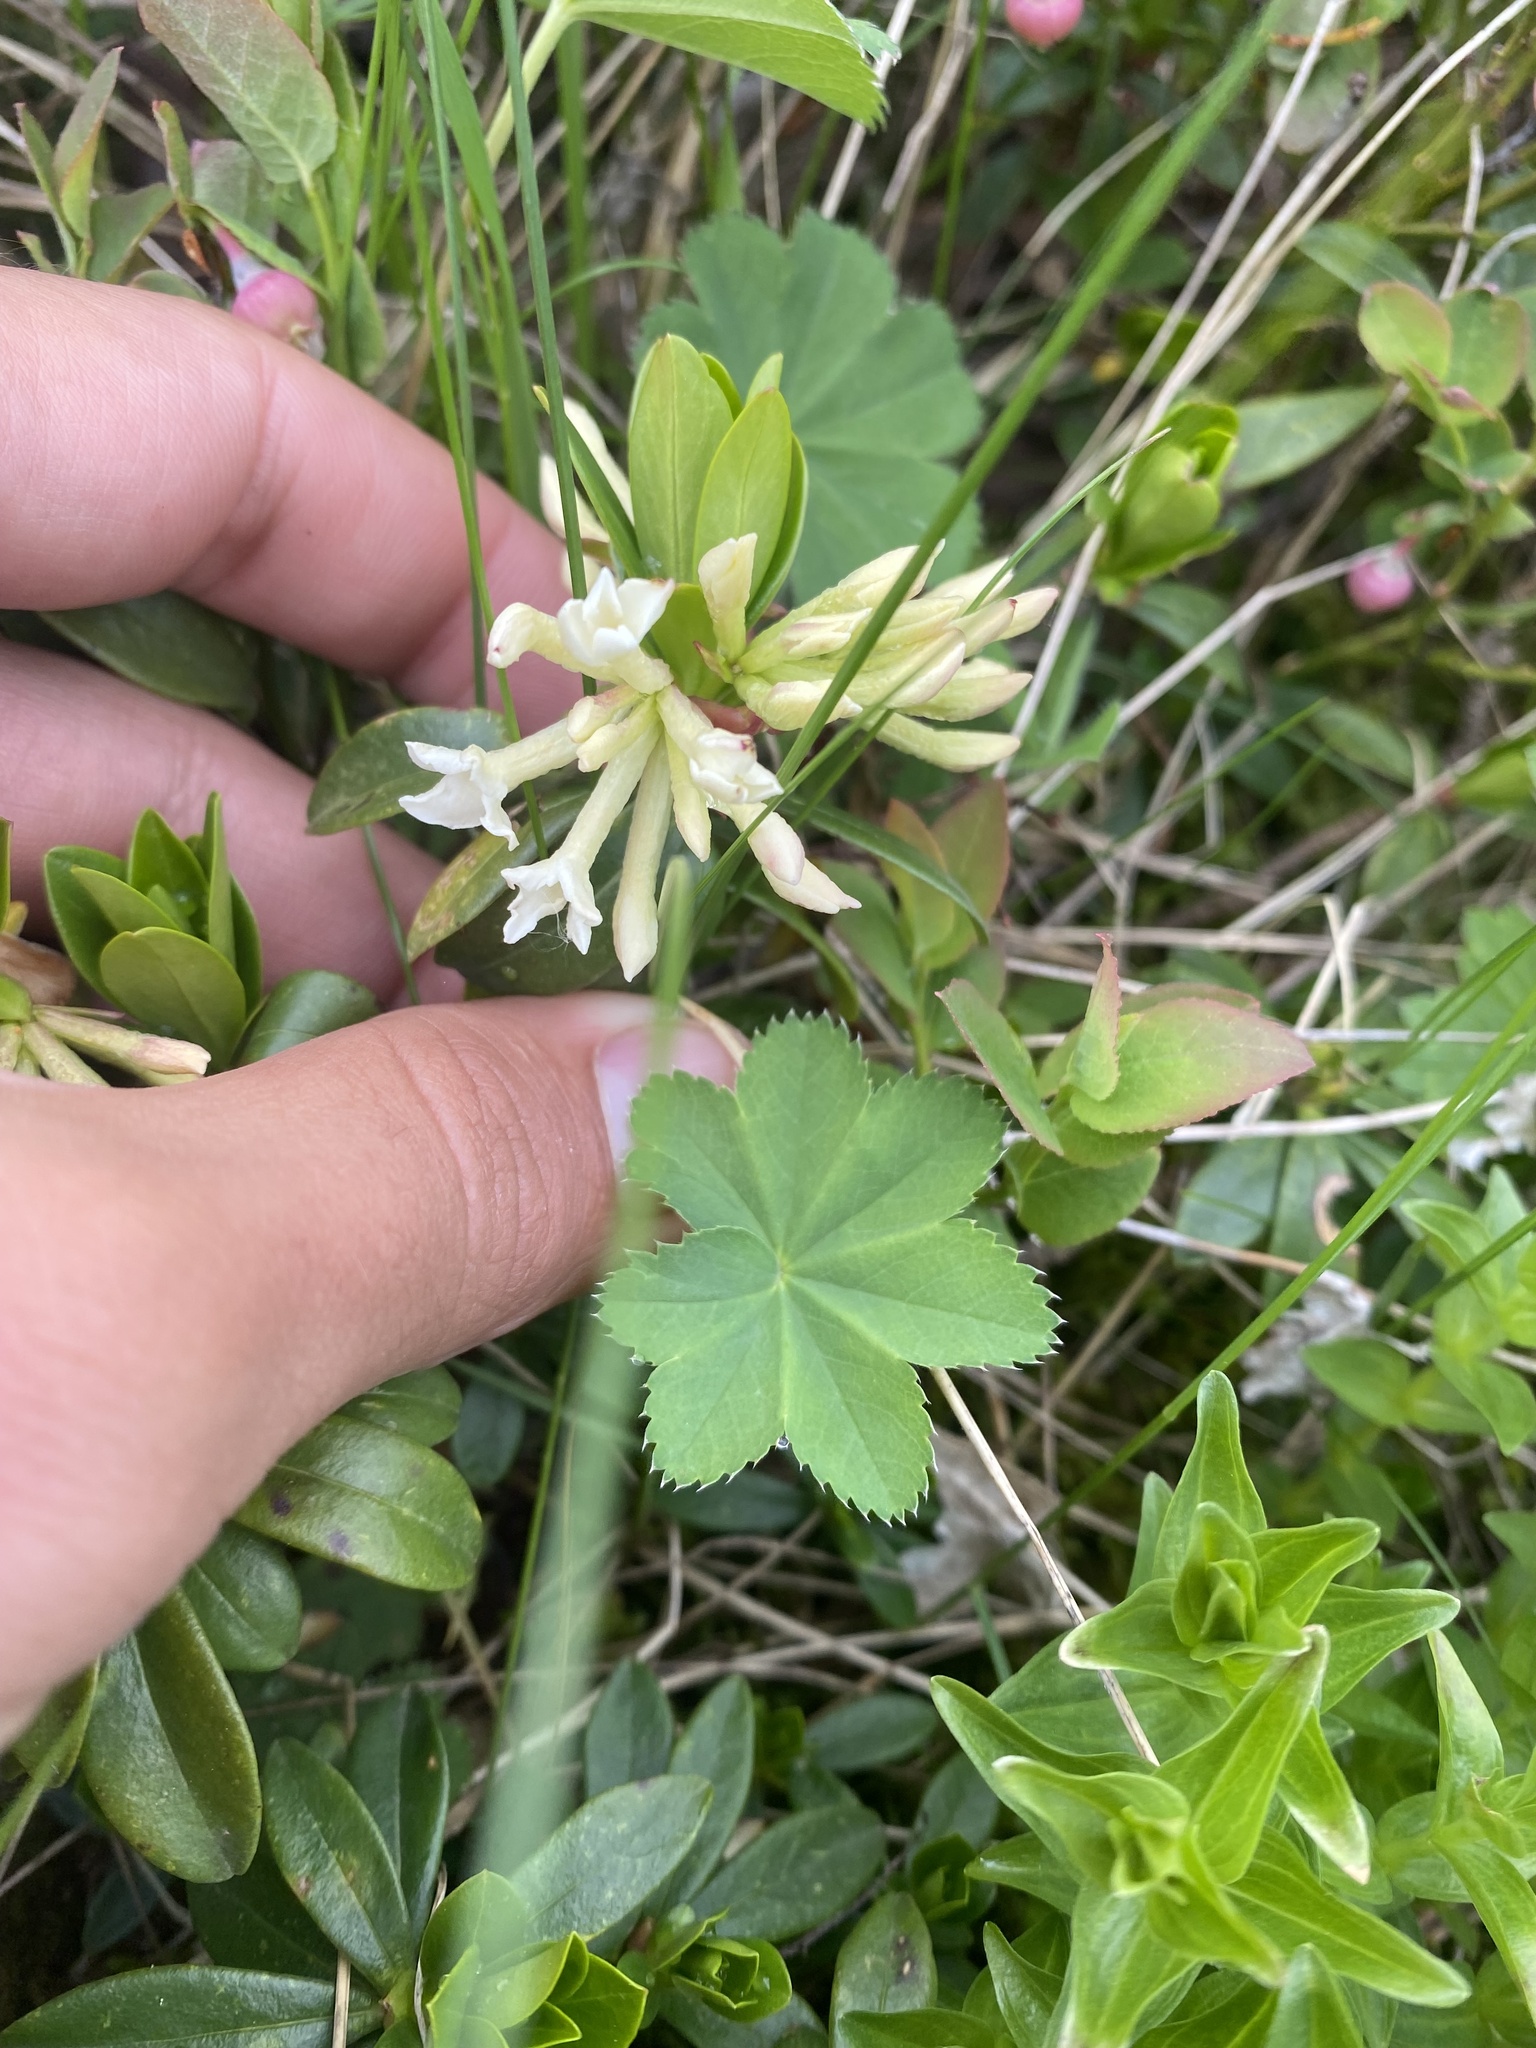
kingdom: Plantae
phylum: Tracheophyta
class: Magnoliopsida
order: Malvales
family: Thymelaeaceae
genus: Daphne
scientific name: Daphne glomerata
